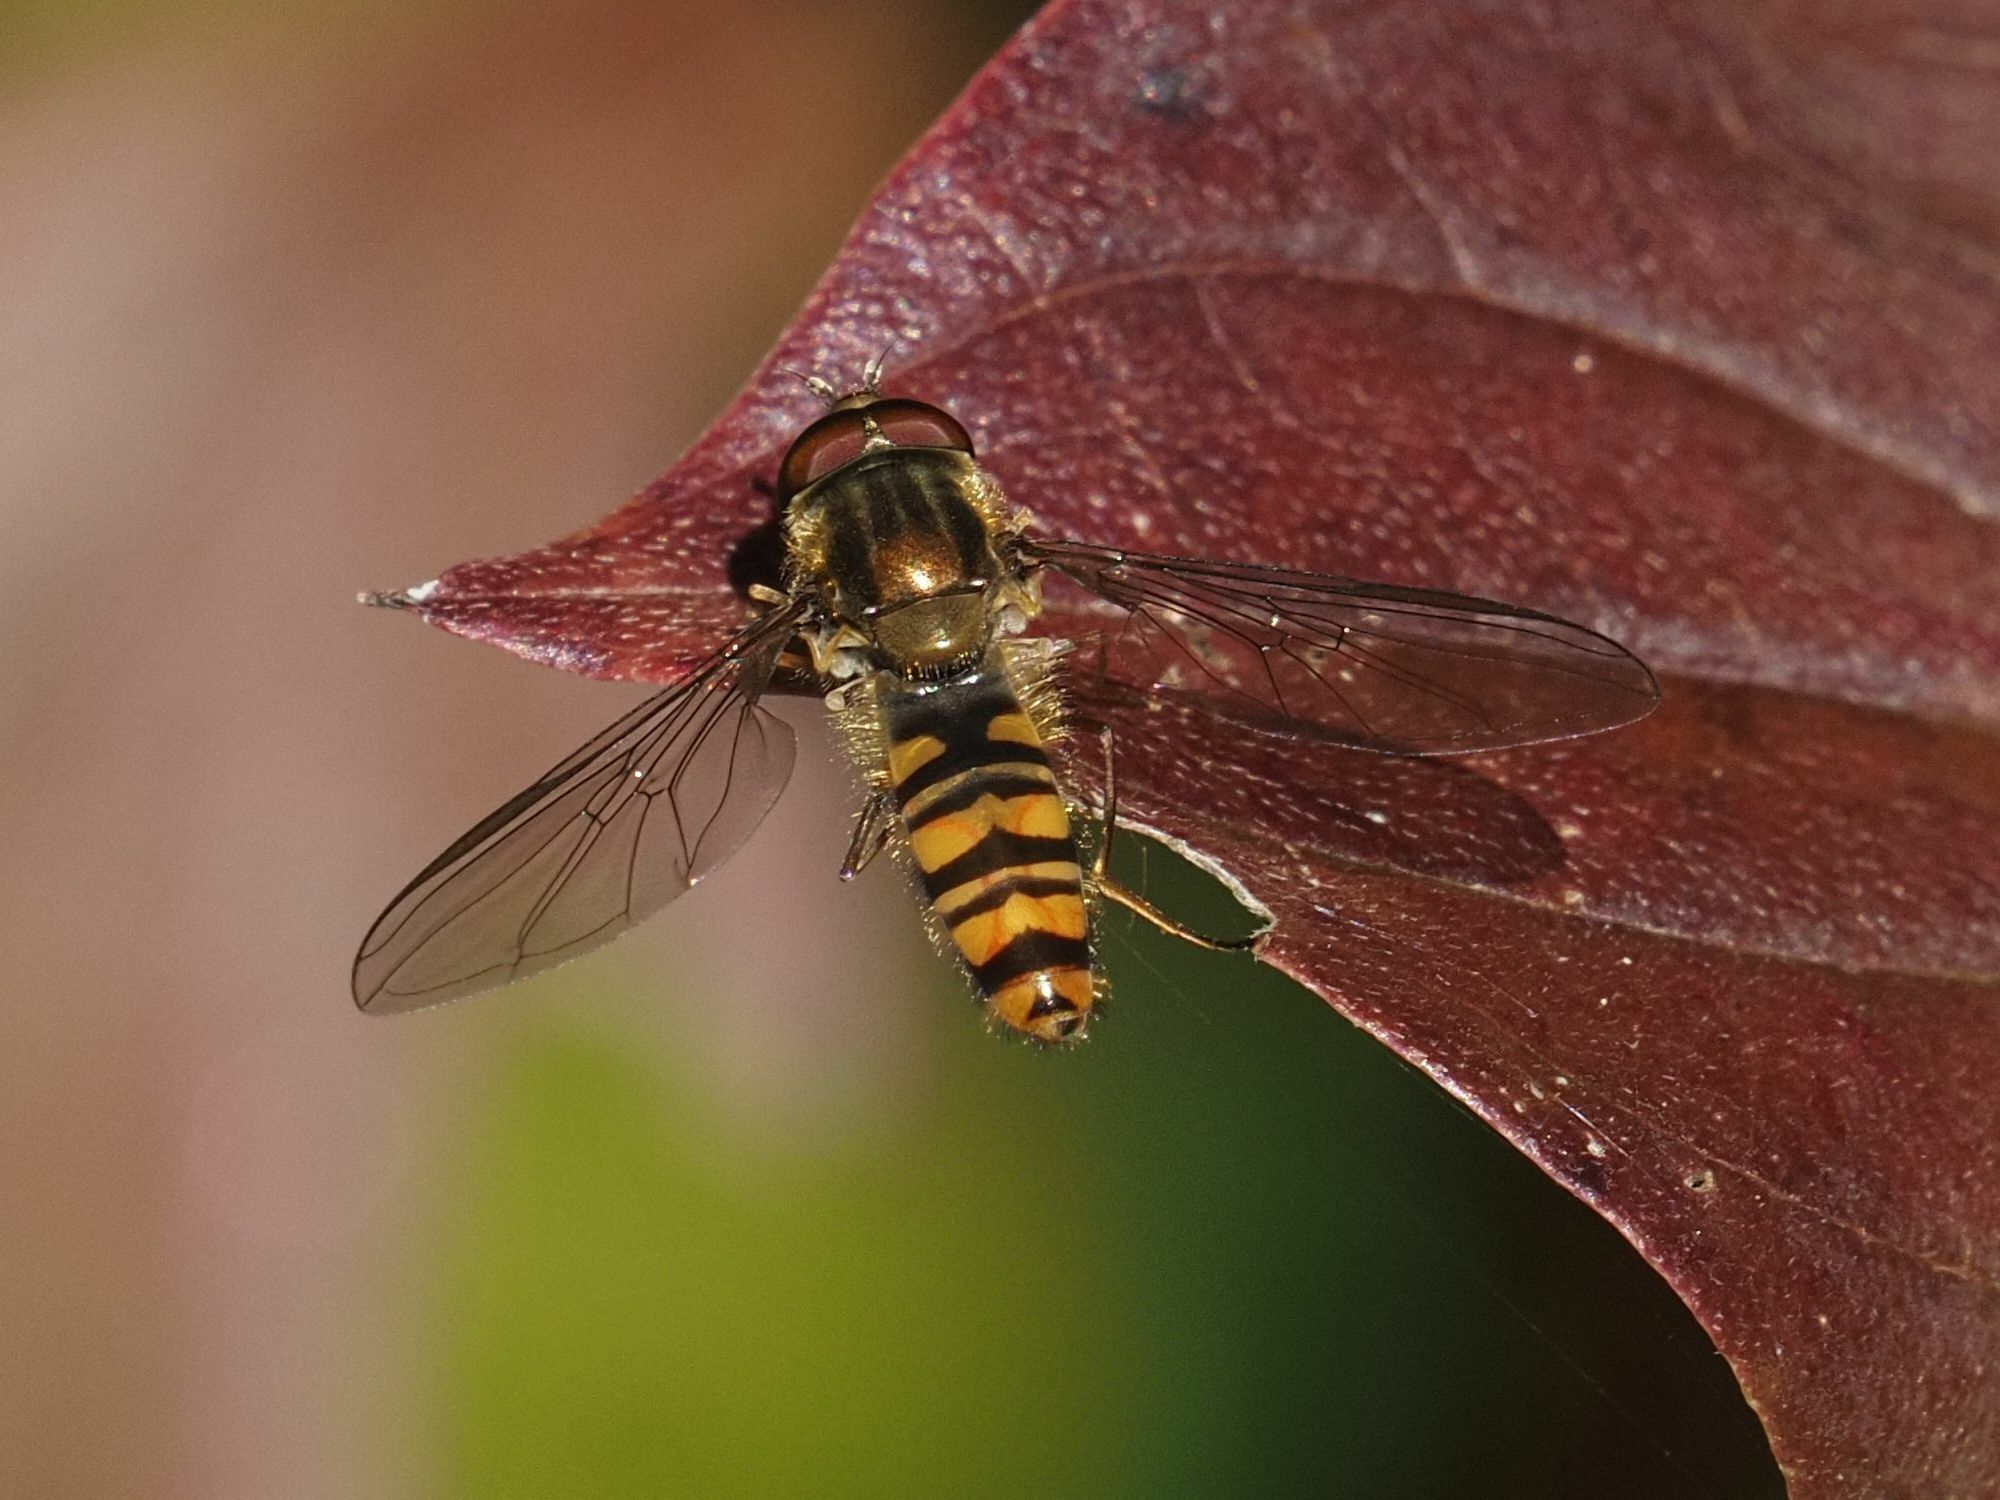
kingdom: Animalia
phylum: Arthropoda
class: Insecta
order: Diptera
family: Syrphidae
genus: Episyrphus
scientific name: Episyrphus balteatus
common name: Marmalade hoverfly
